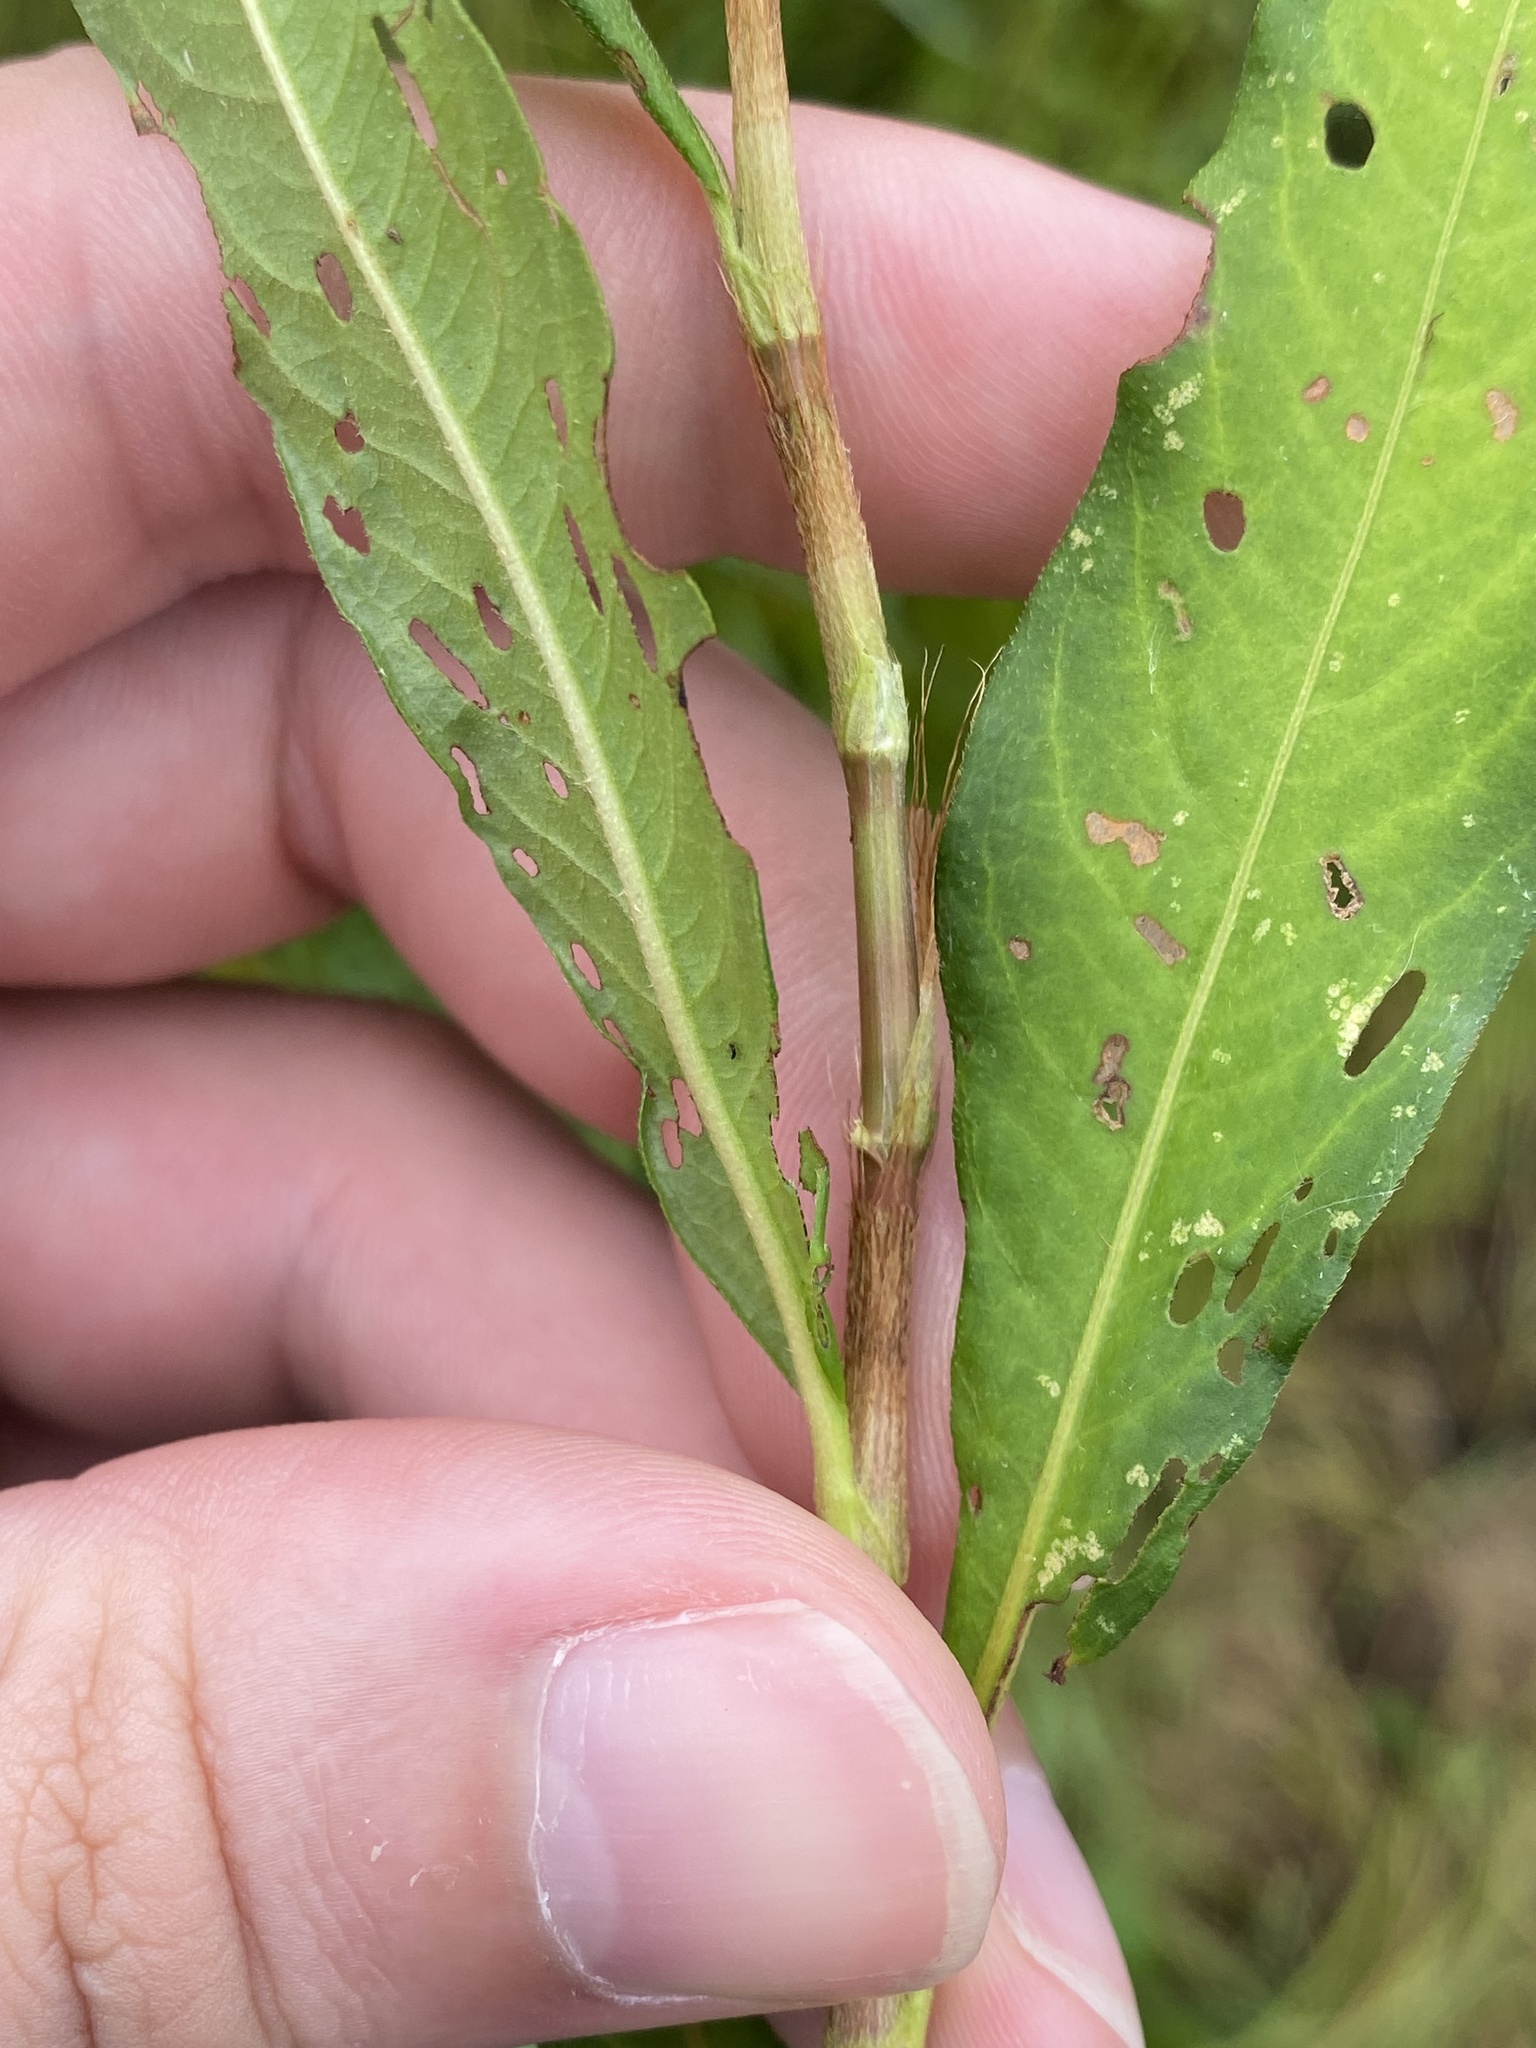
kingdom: Plantae
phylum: Tracheophyta
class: Magnoliopsida
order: Caryophyllales
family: Polygonaceae
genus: Persicaria
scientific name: Persicaria hydropiperoides
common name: Swamp smartweed
